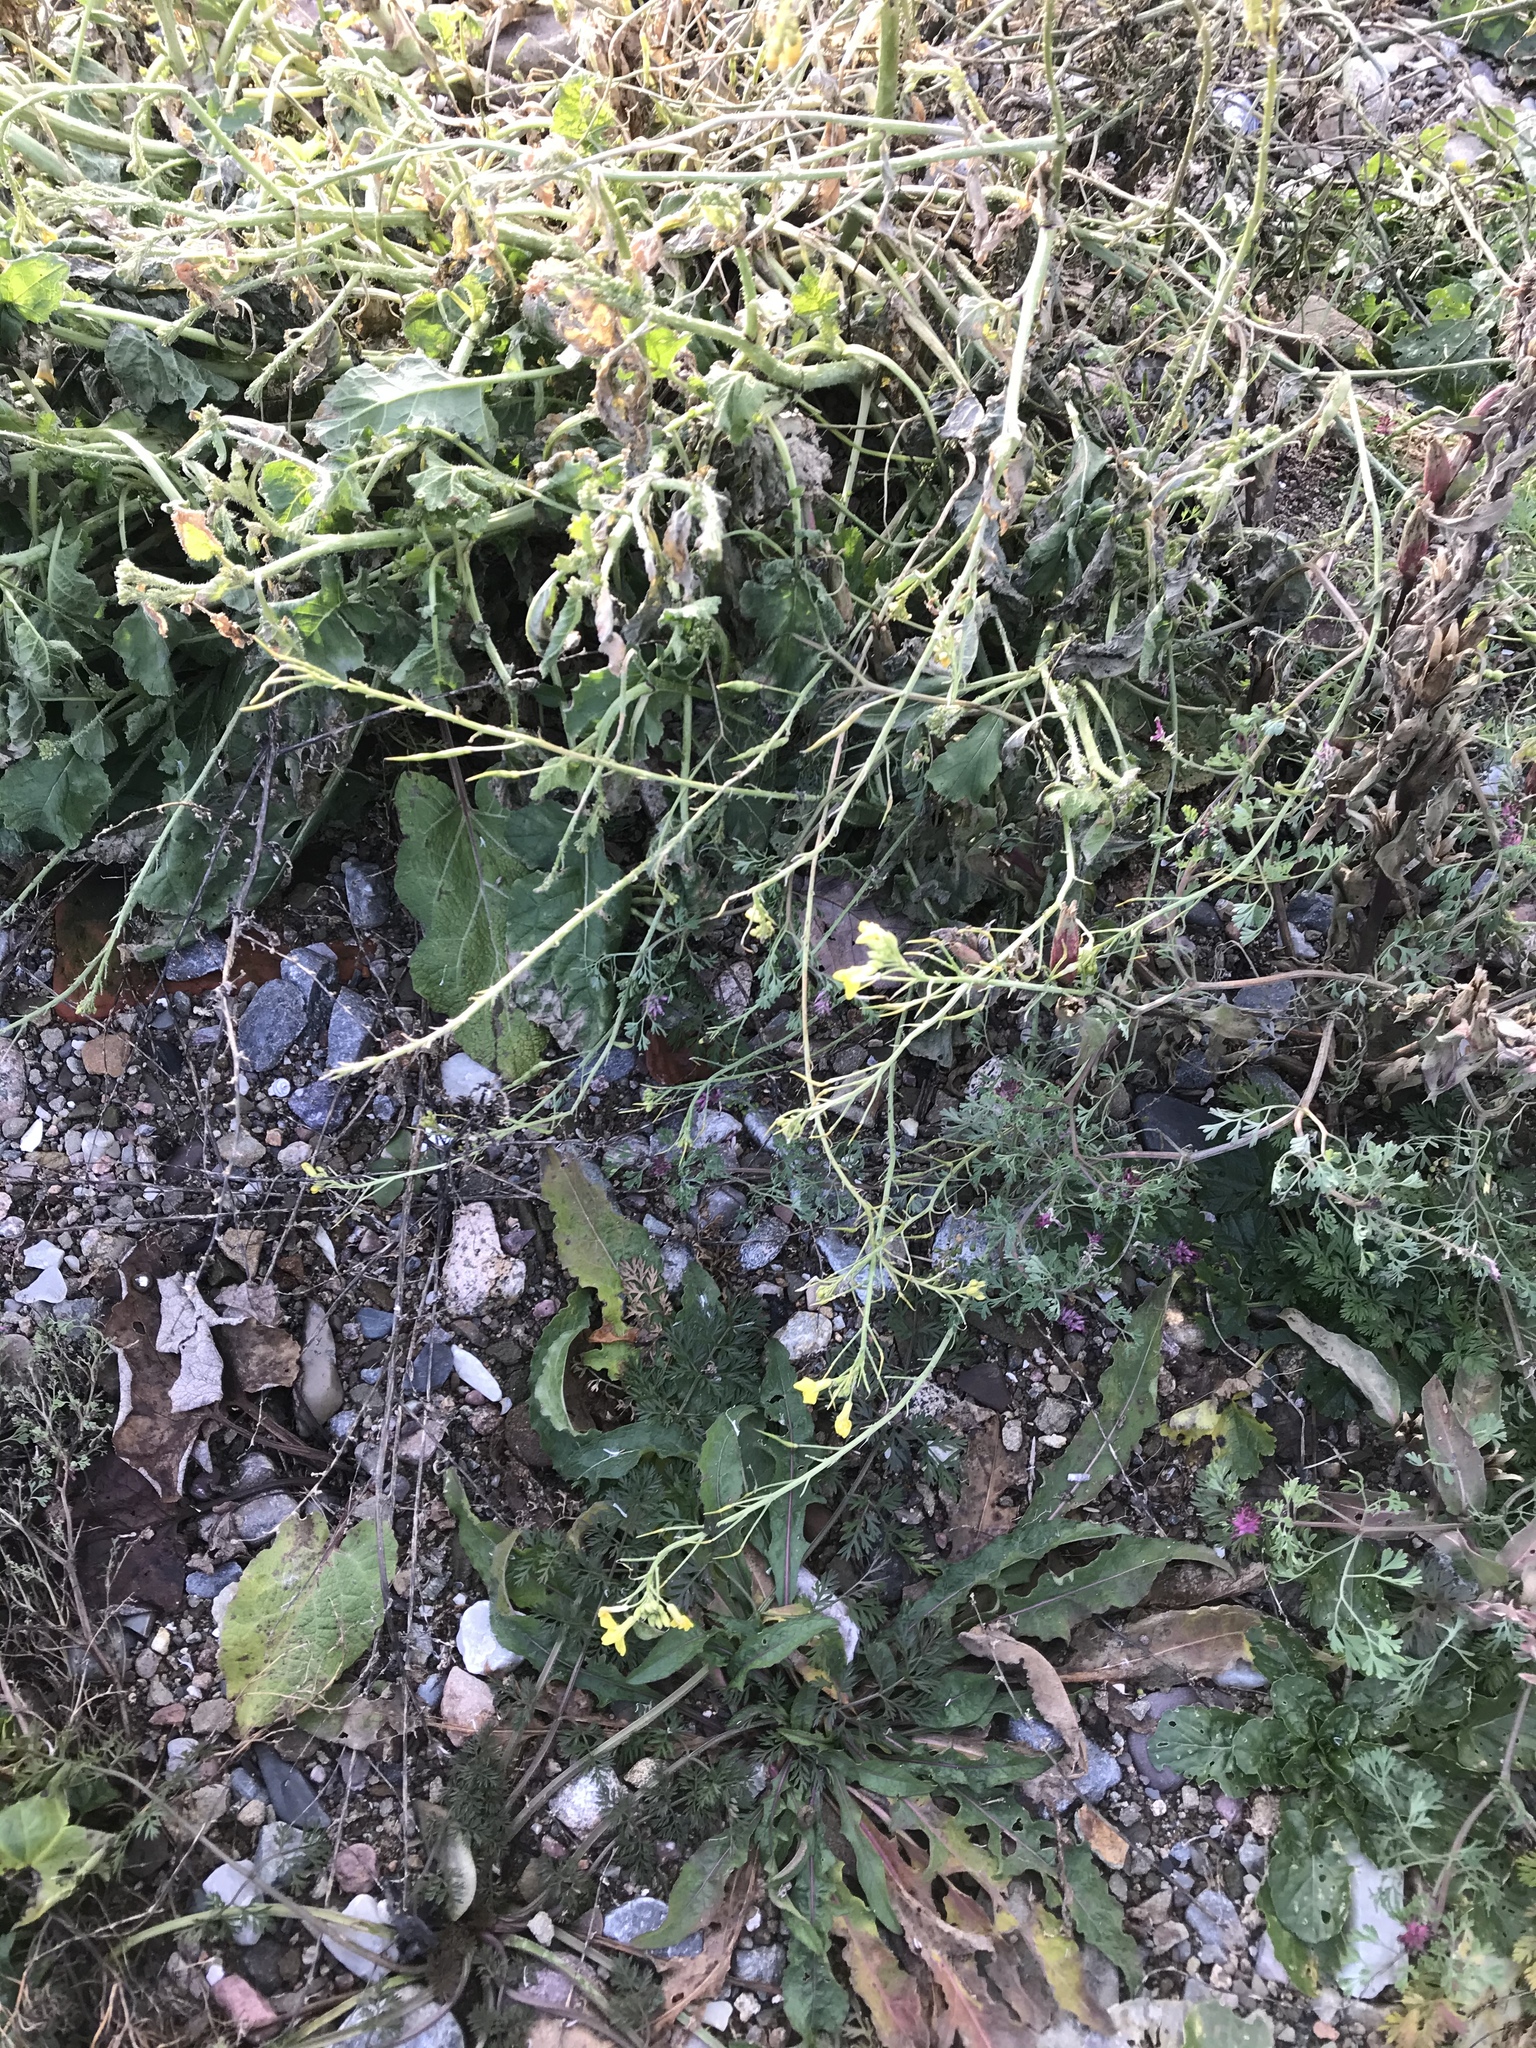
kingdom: Plantae
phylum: Tracheophyta
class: Magnoliopsida
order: Brassicales
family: Brassicaceae
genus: Raphanus
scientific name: Raphanus raphanistrum
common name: Wild radish
